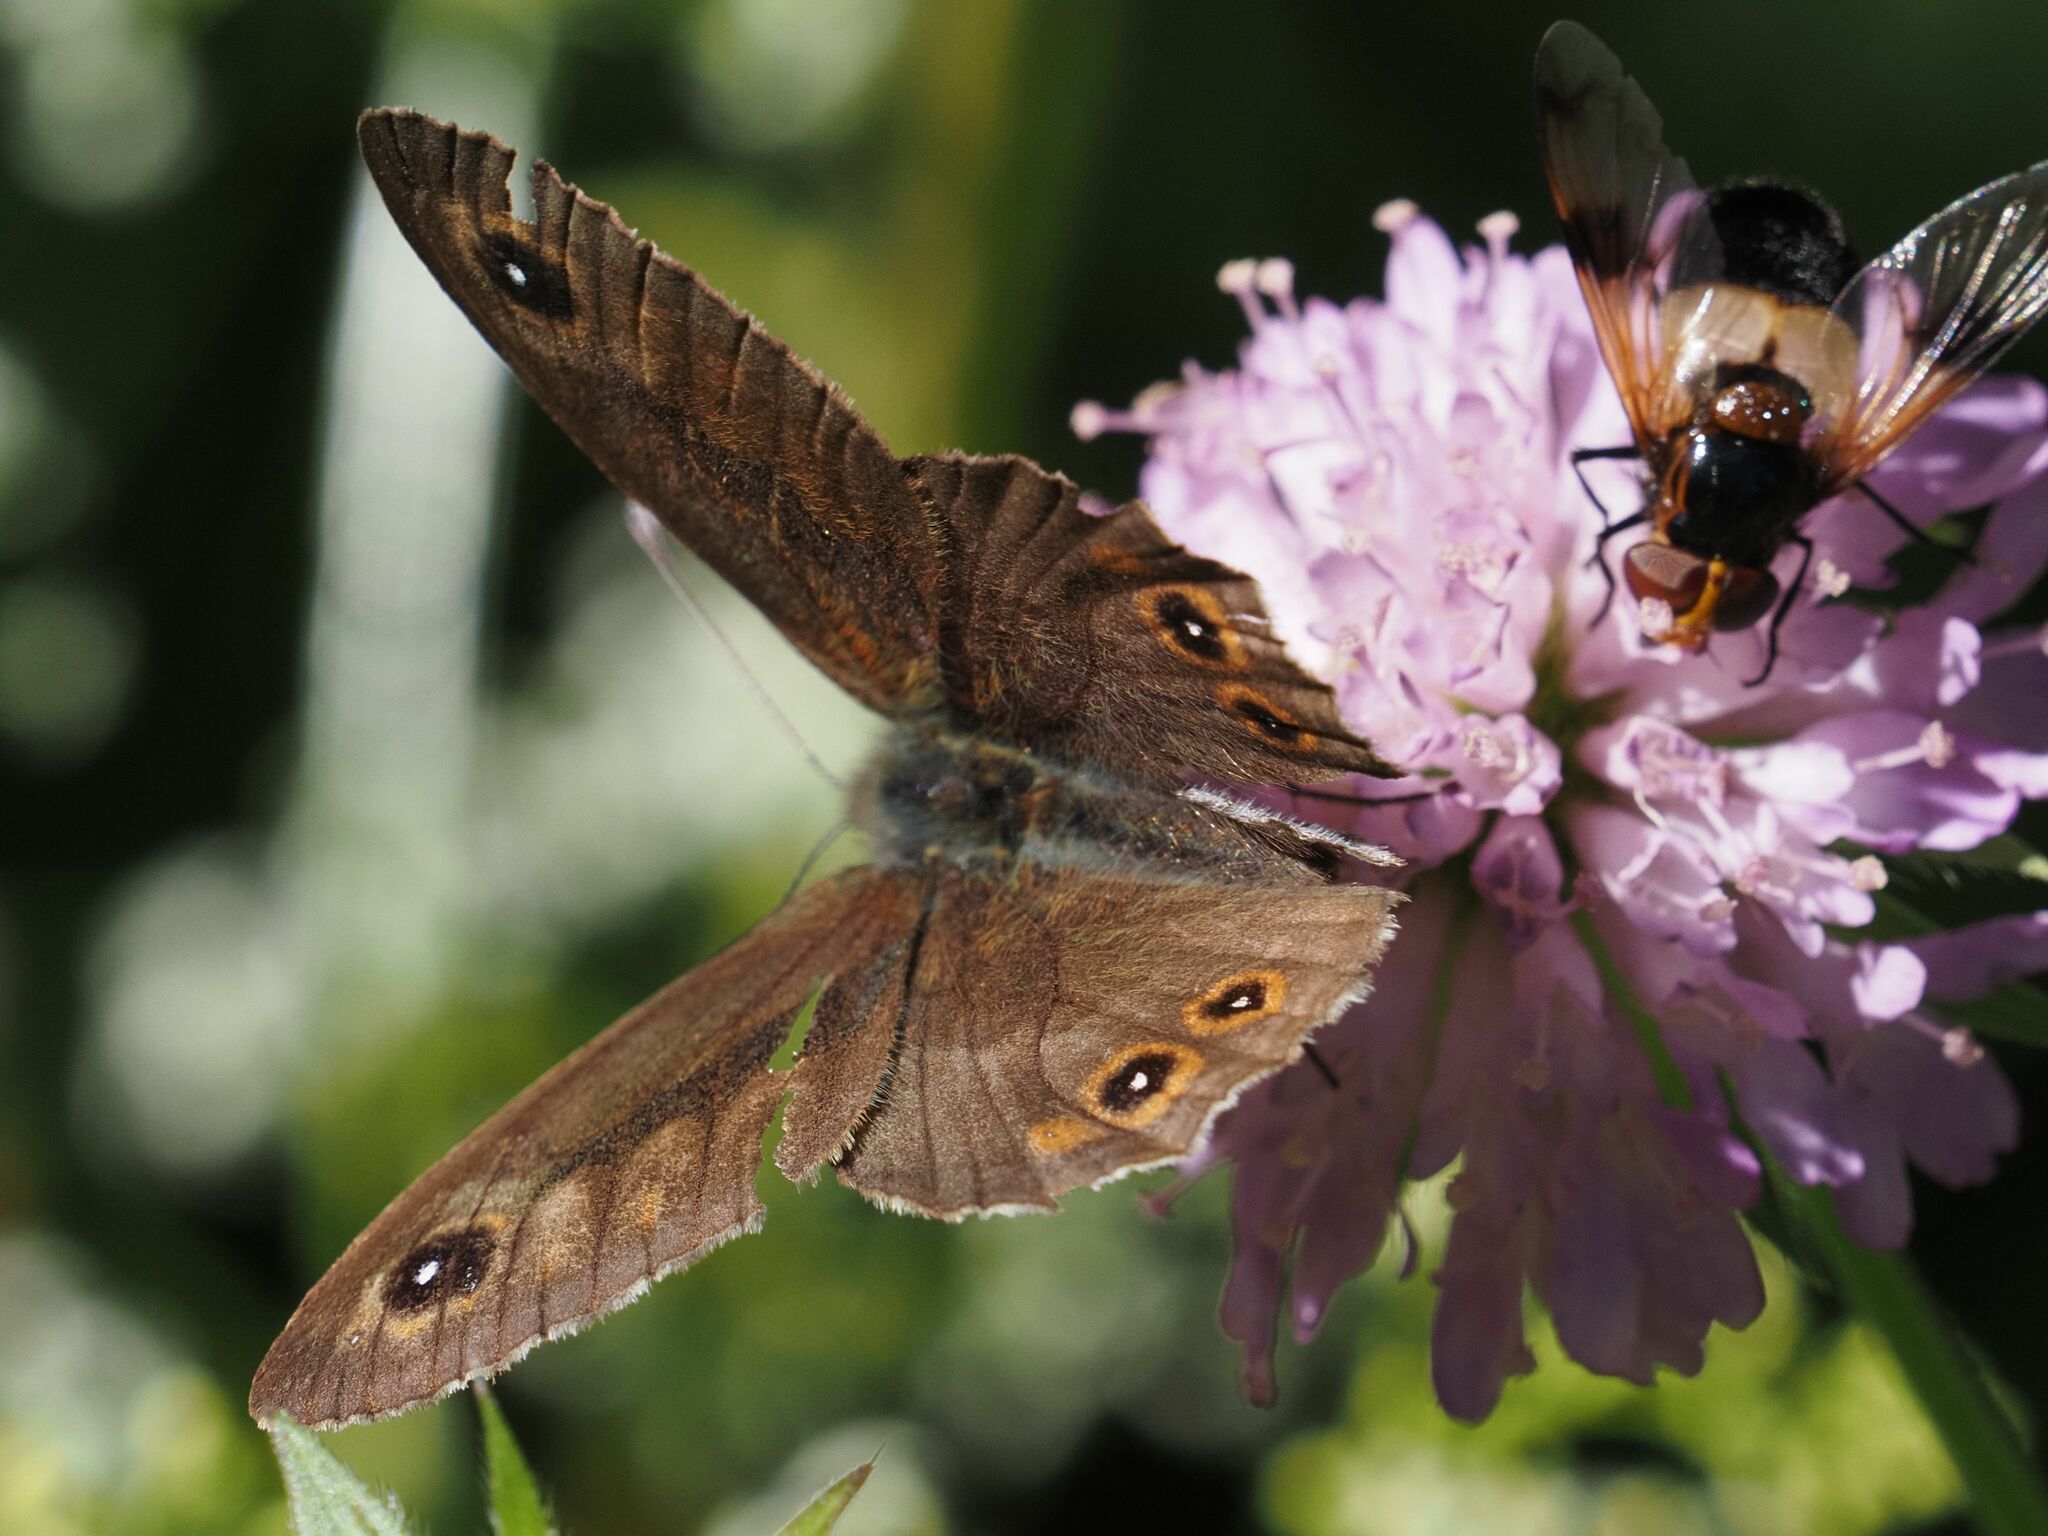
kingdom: Animalia
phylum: Arthropoda
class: Insecta
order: Lepidoptera
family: Nymphalidae
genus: Pararge
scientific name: Pararge Lasiommata maera
